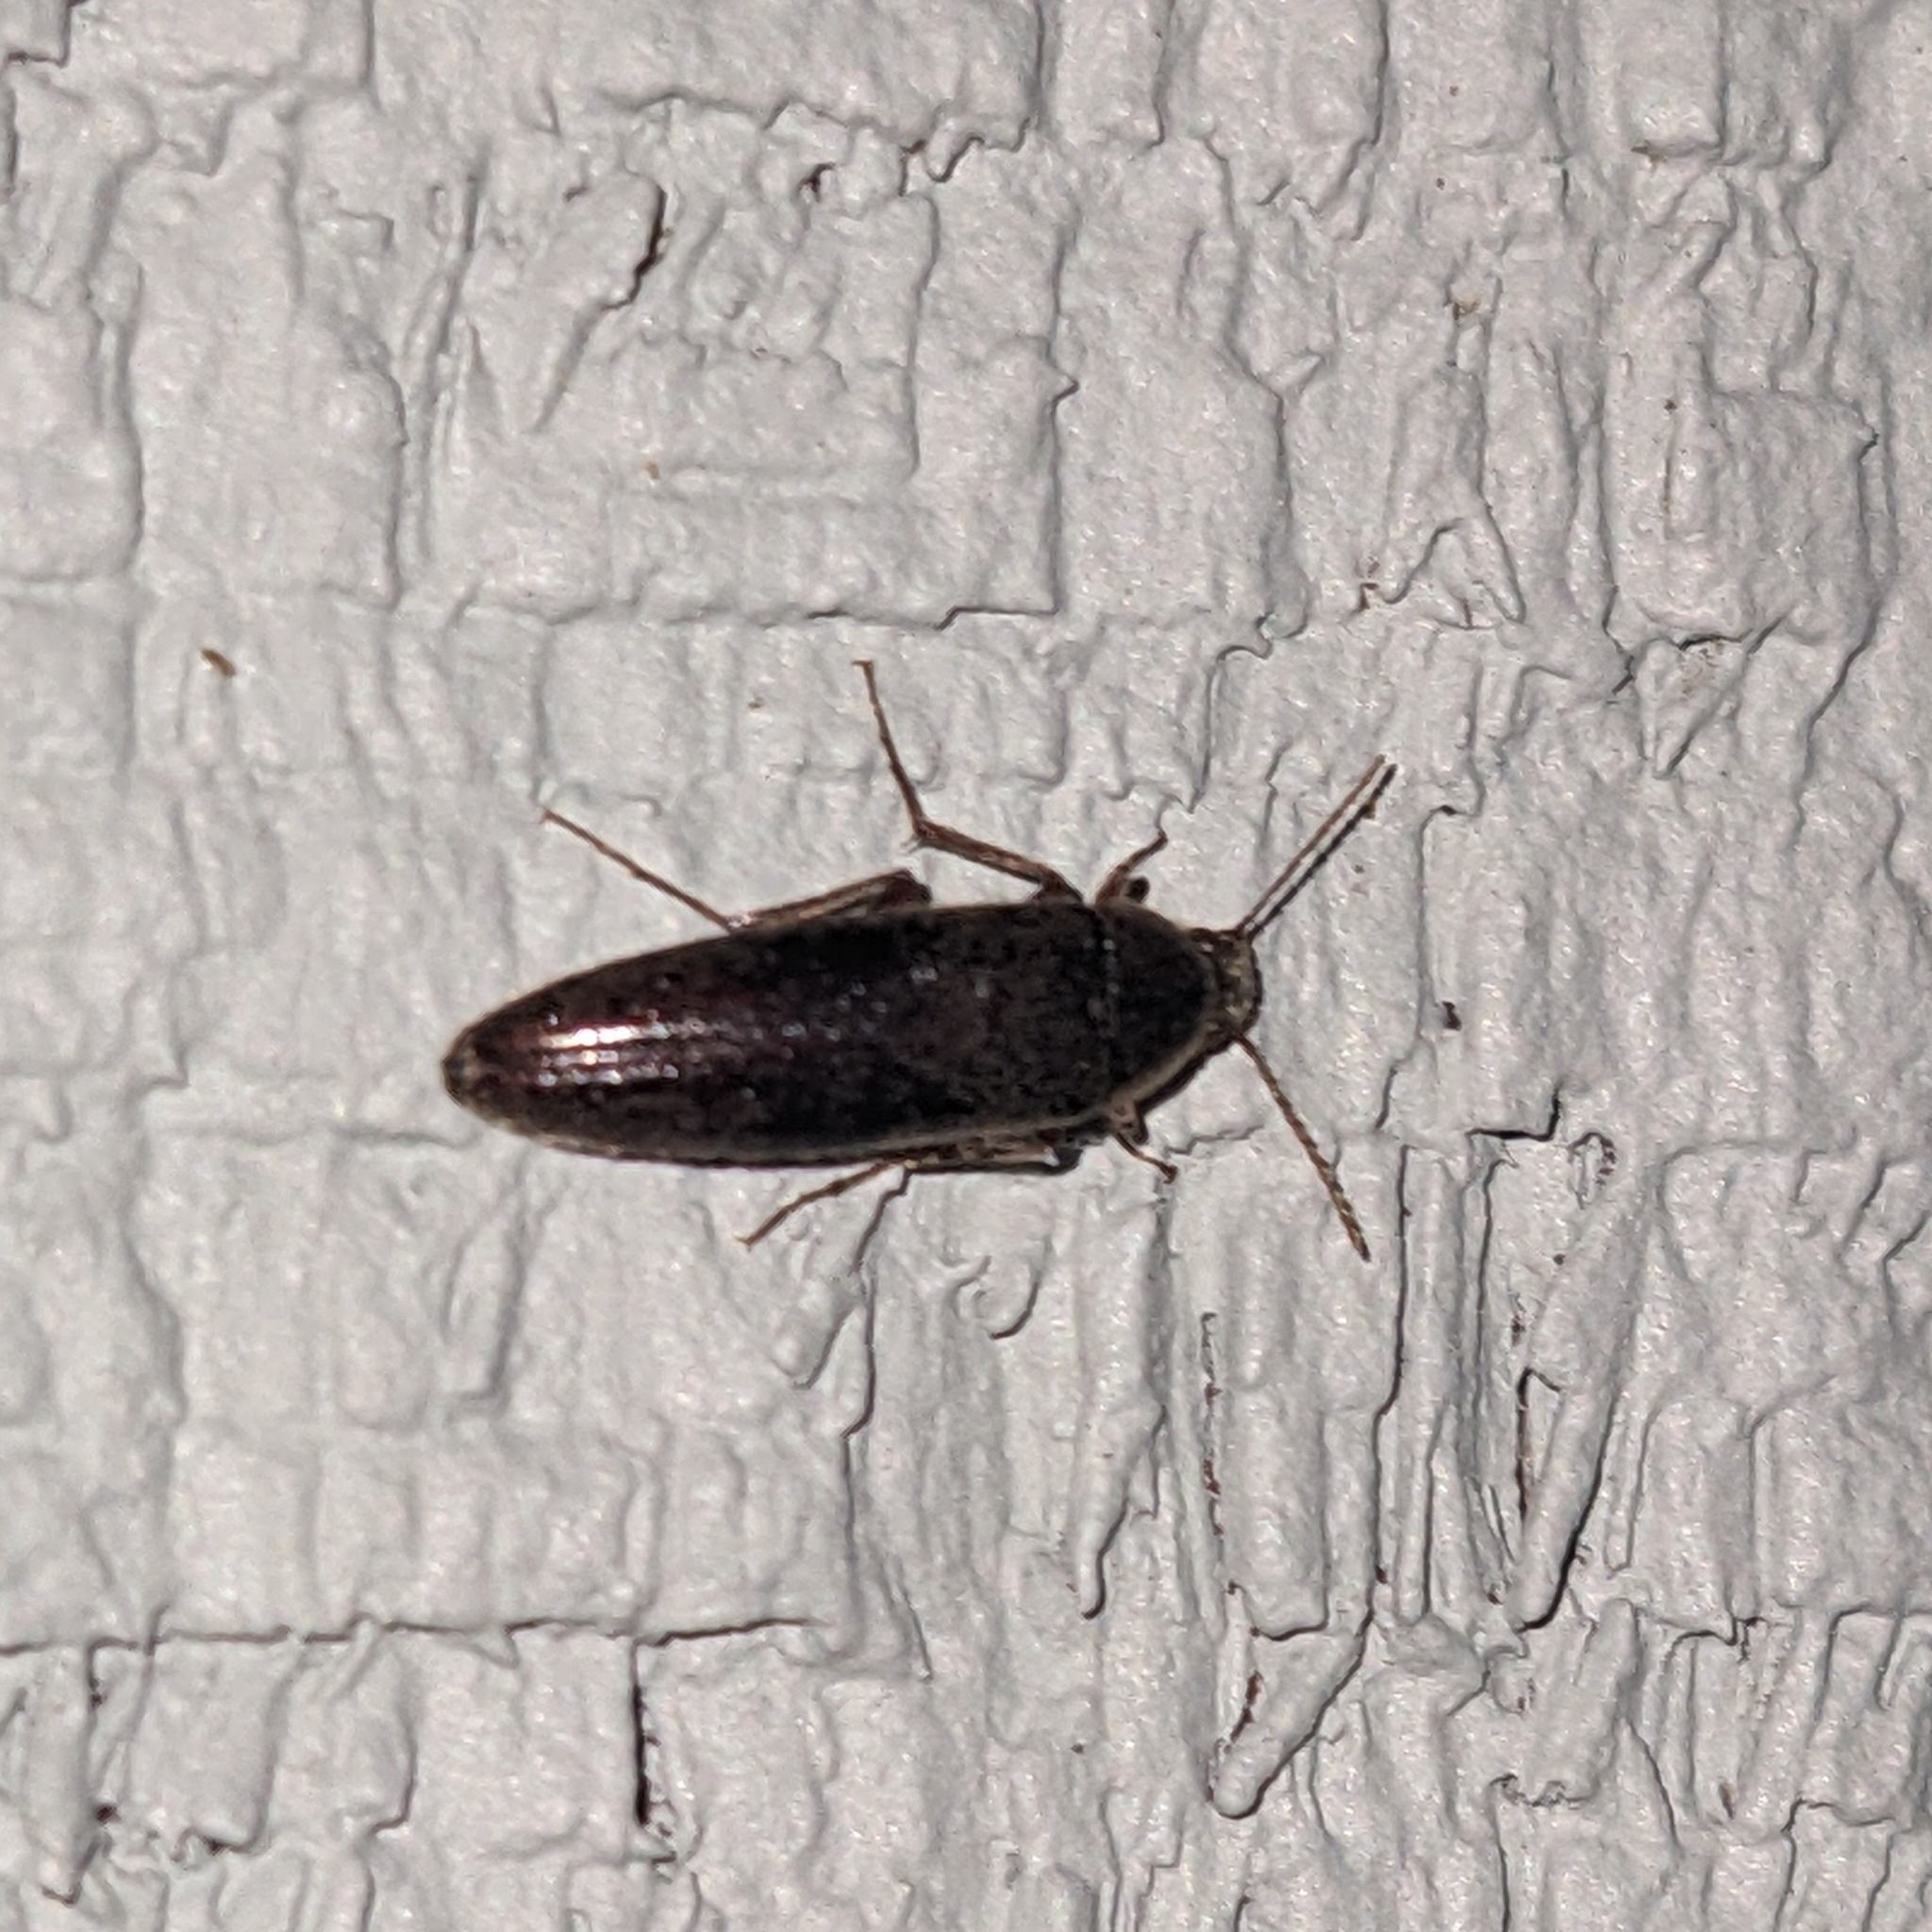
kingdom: Animalia
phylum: Arthropoda
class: Insecta
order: Coleoptera
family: Synchroidae
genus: Synchroa
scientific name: Synchroa punctata
